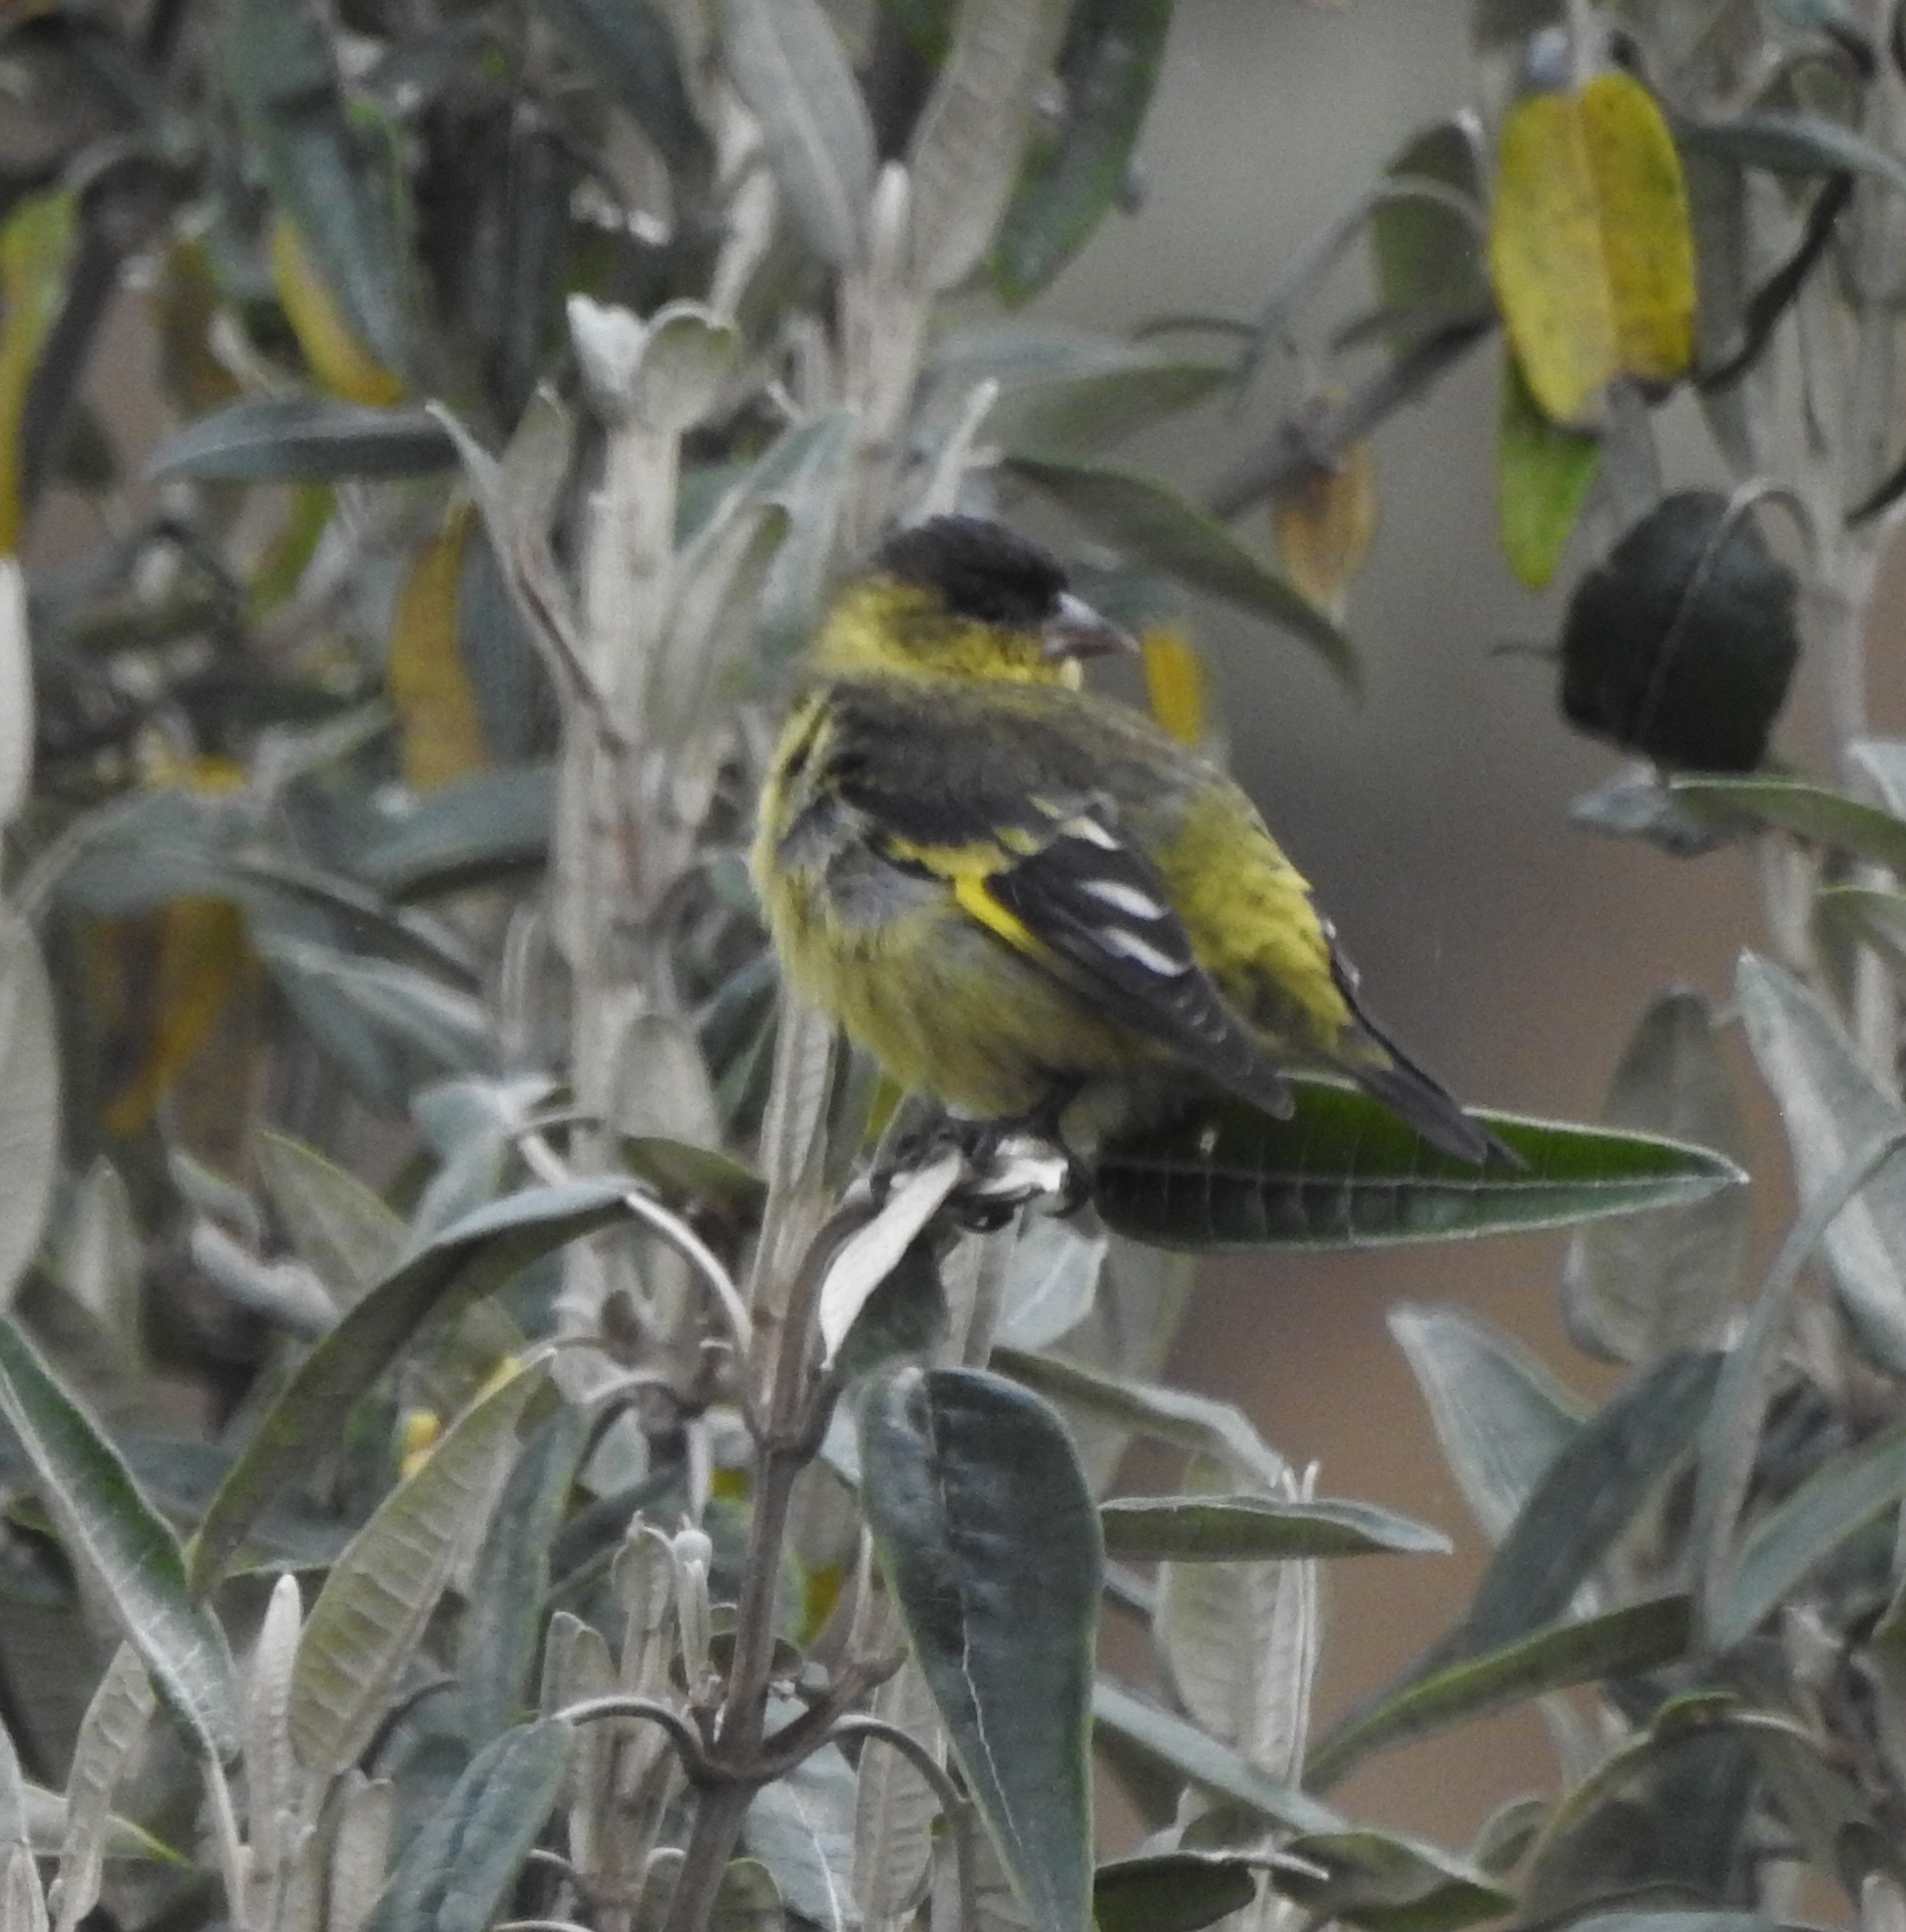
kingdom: Animalia
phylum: Chordata
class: Aves
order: Passeriformes
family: Fringillidae
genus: Spinus
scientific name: Spinus spinescens
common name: Andean siskin
